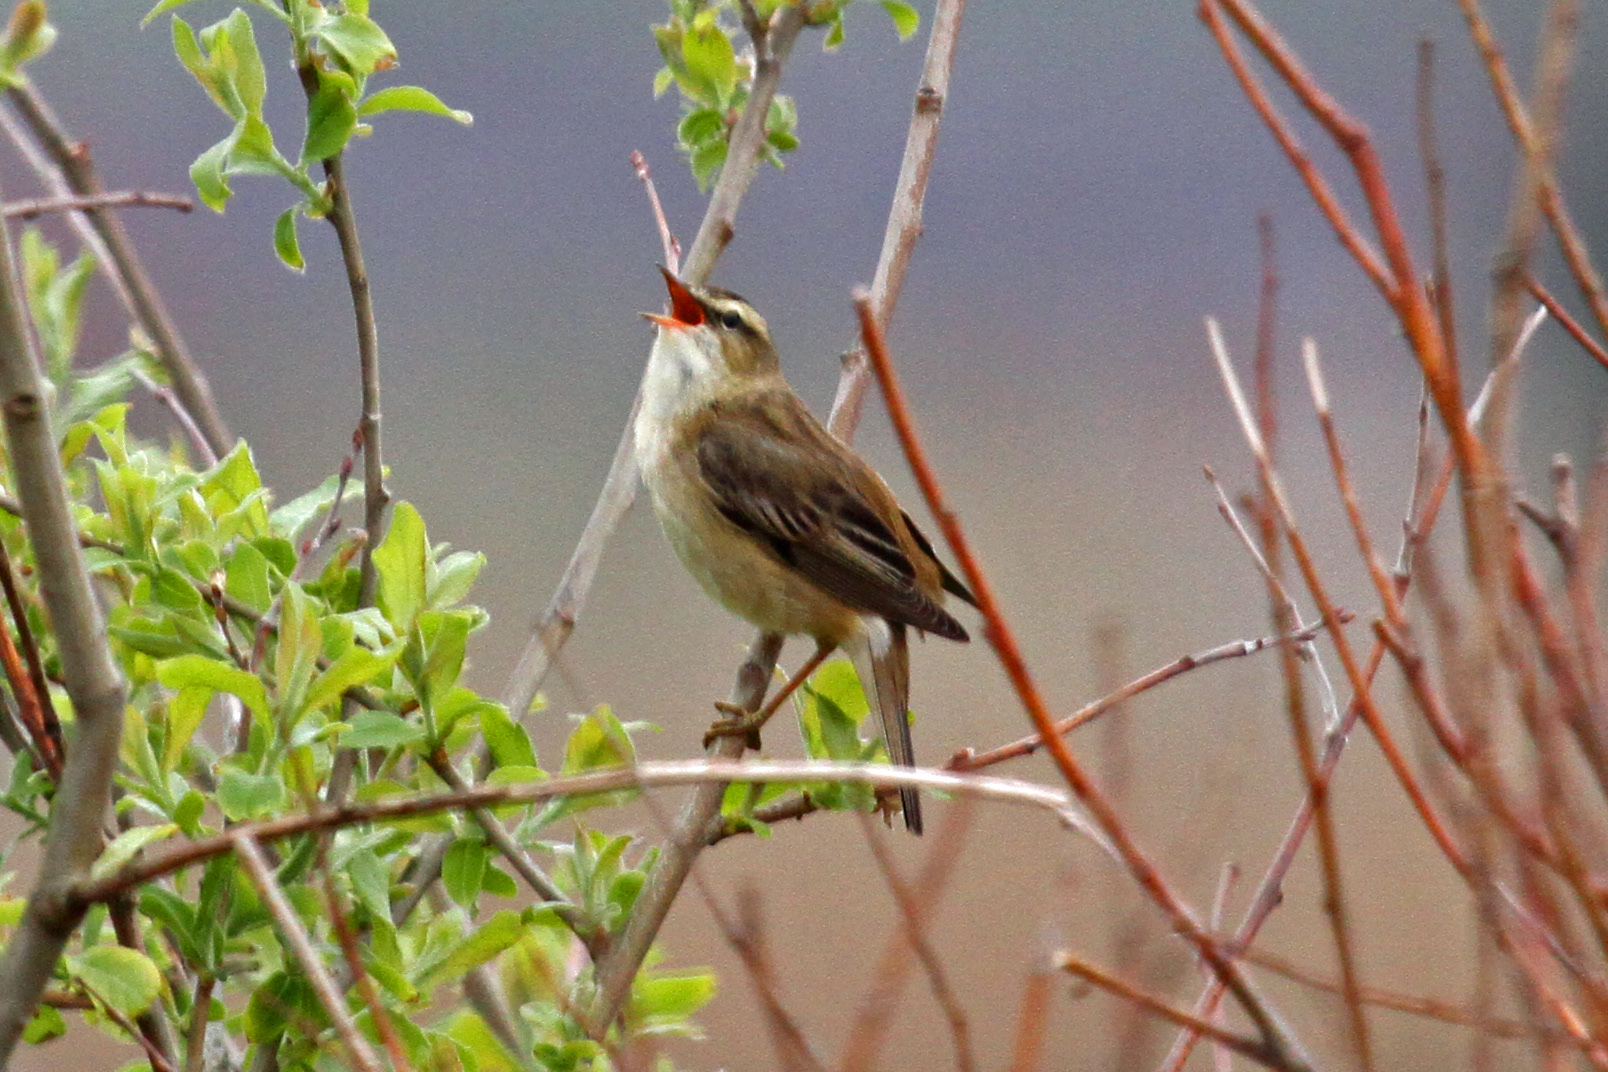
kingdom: Animalia
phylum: Chordata
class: Aves
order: Passeriformes
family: Acrocephalidae
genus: Acrocephalus
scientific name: Acrocephalus schoenobaenus
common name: Sedge warbler
